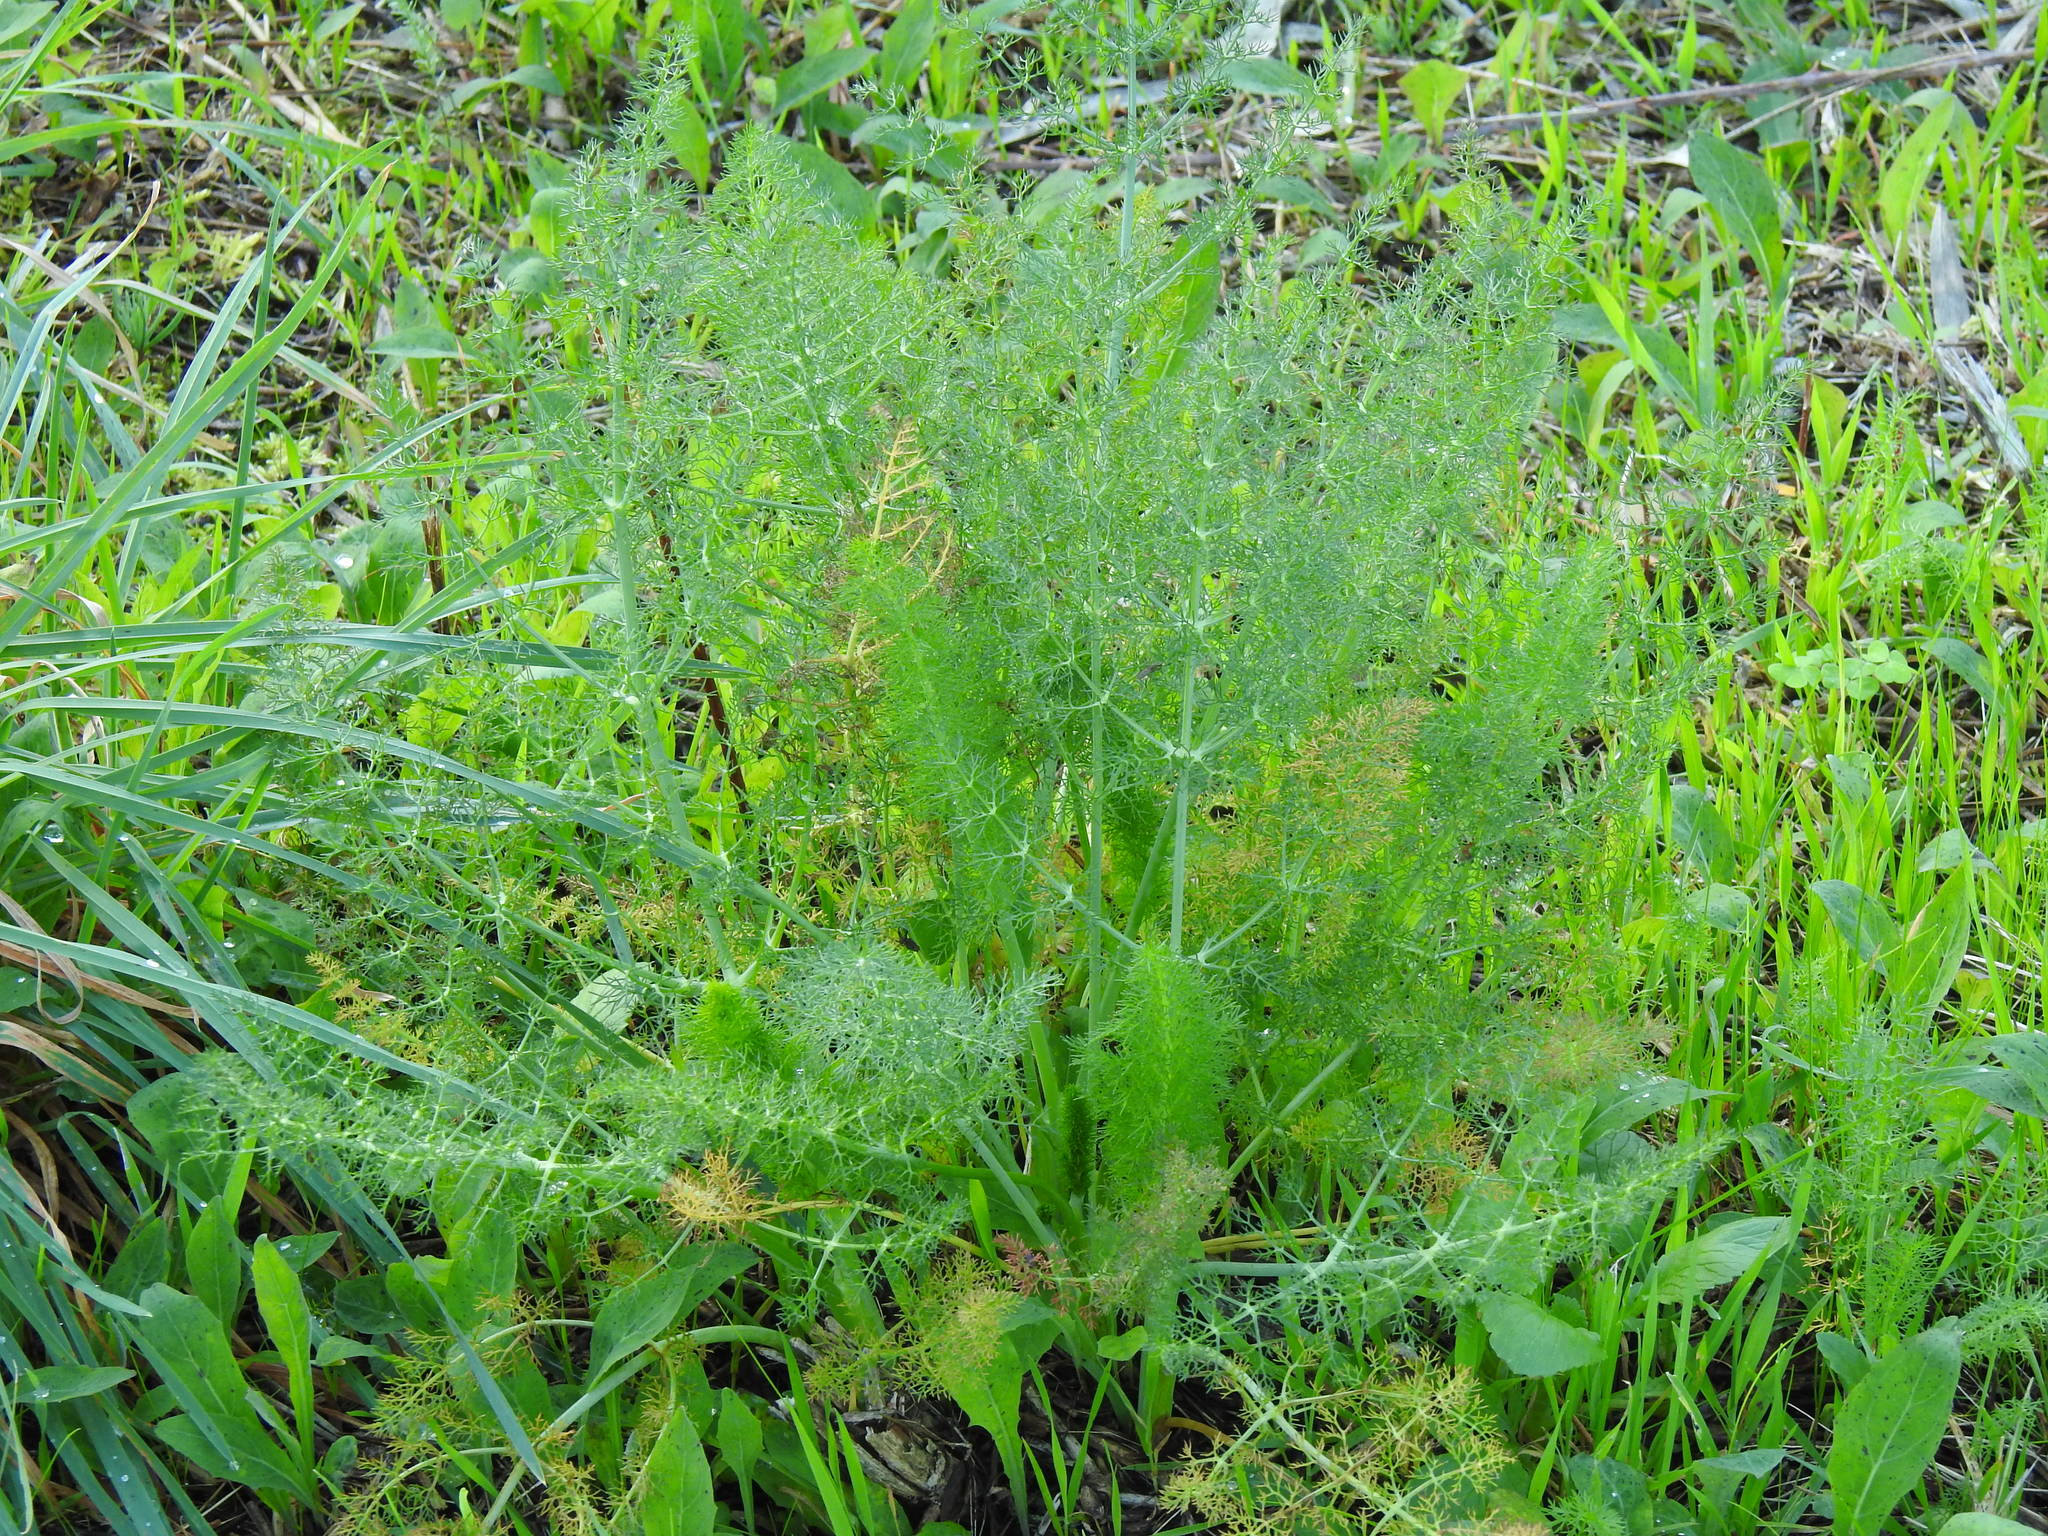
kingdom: Plantae
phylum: Tracheophyta
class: Magnoliopsida
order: Apiales
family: Apiaceae
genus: Foeniculum
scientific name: Foeniculum vulgare
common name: Fennel
